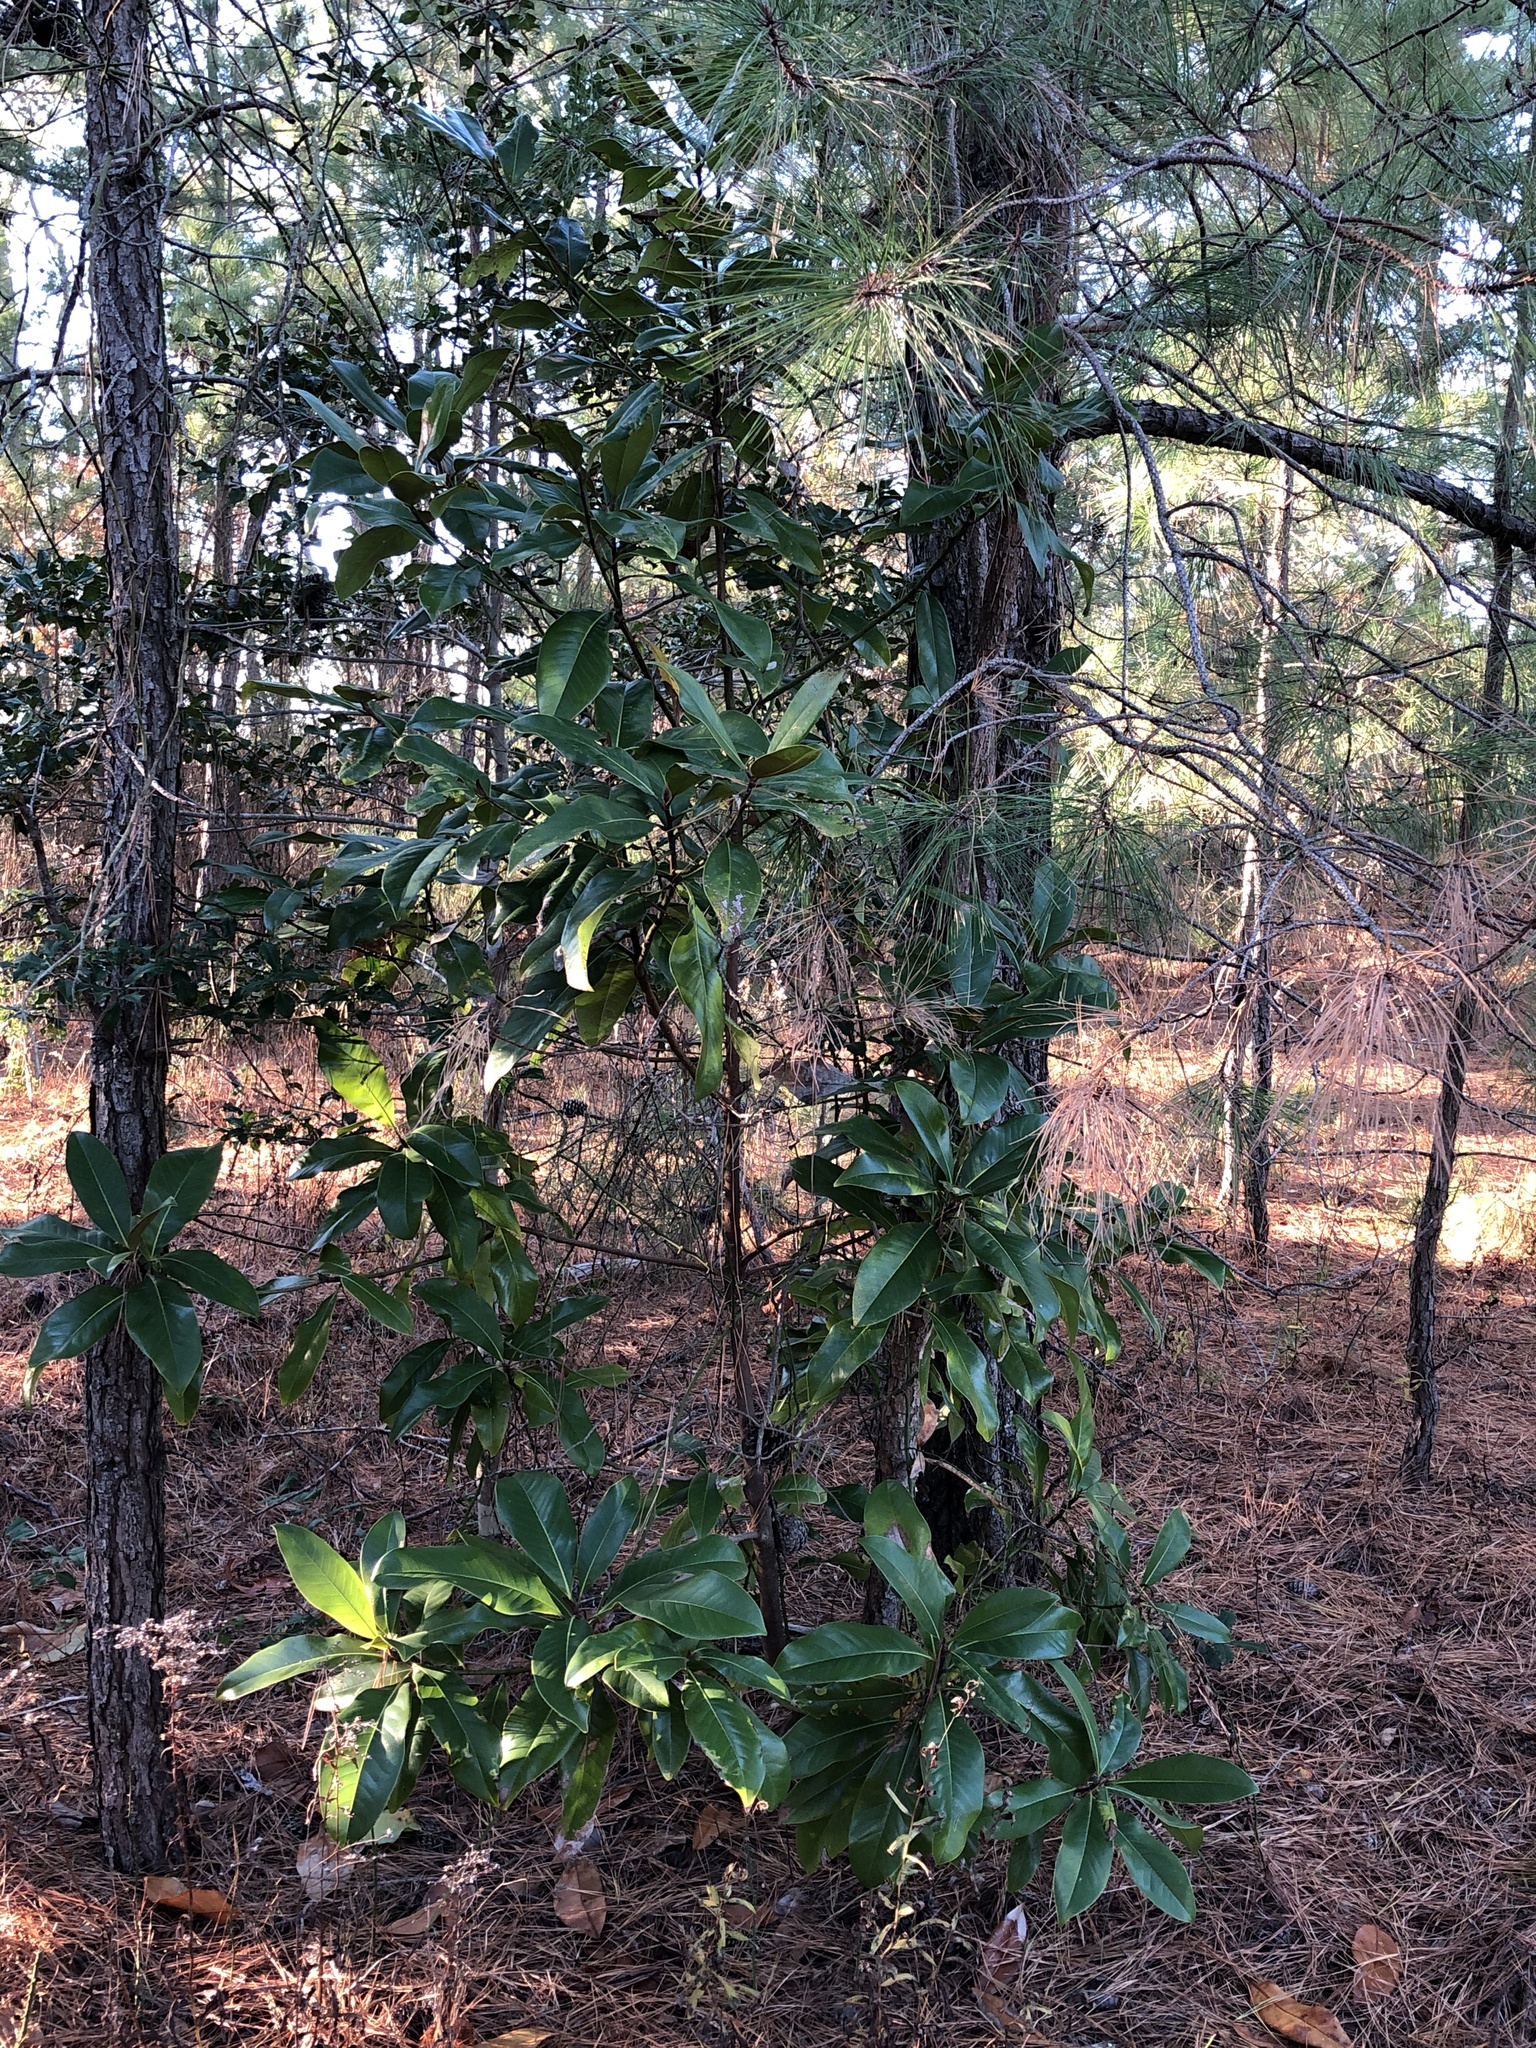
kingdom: Plantae
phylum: Tracheophyta
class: Magnoliopsida
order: Magnoliales
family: Magnoliaceae
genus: Magnolia
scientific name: Magnolia grandiflora
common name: Southern magnolia
